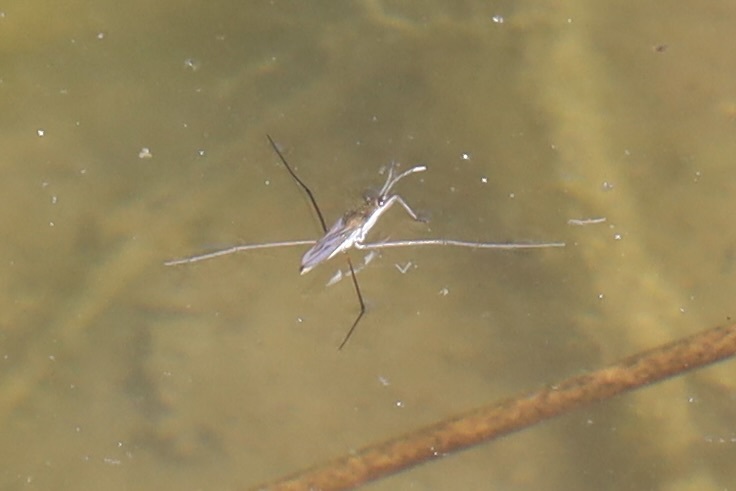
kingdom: Animalia
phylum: Arthropoda
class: Insecta
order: Hemiptera
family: Gerridae
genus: Gerris
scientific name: Gerris
